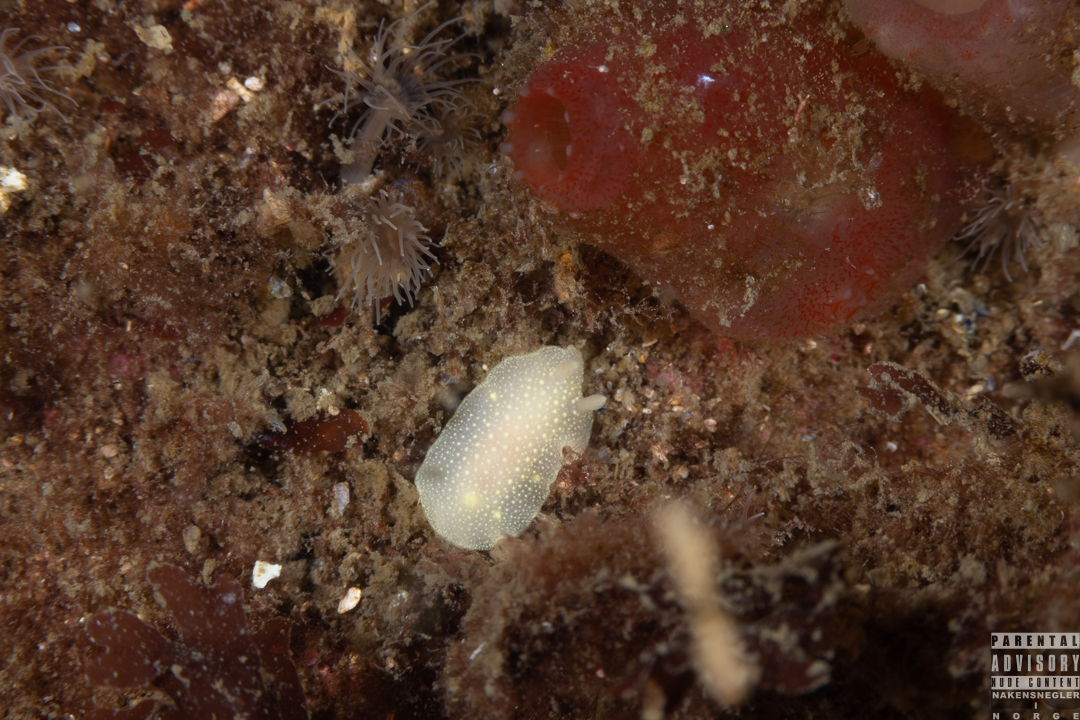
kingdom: Animalia
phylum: Mollusca
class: Gastropoda
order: Nudibranchia
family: Cadlinidae
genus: Cadlina
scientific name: Cadlina laevis
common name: White atlantic cadlina
